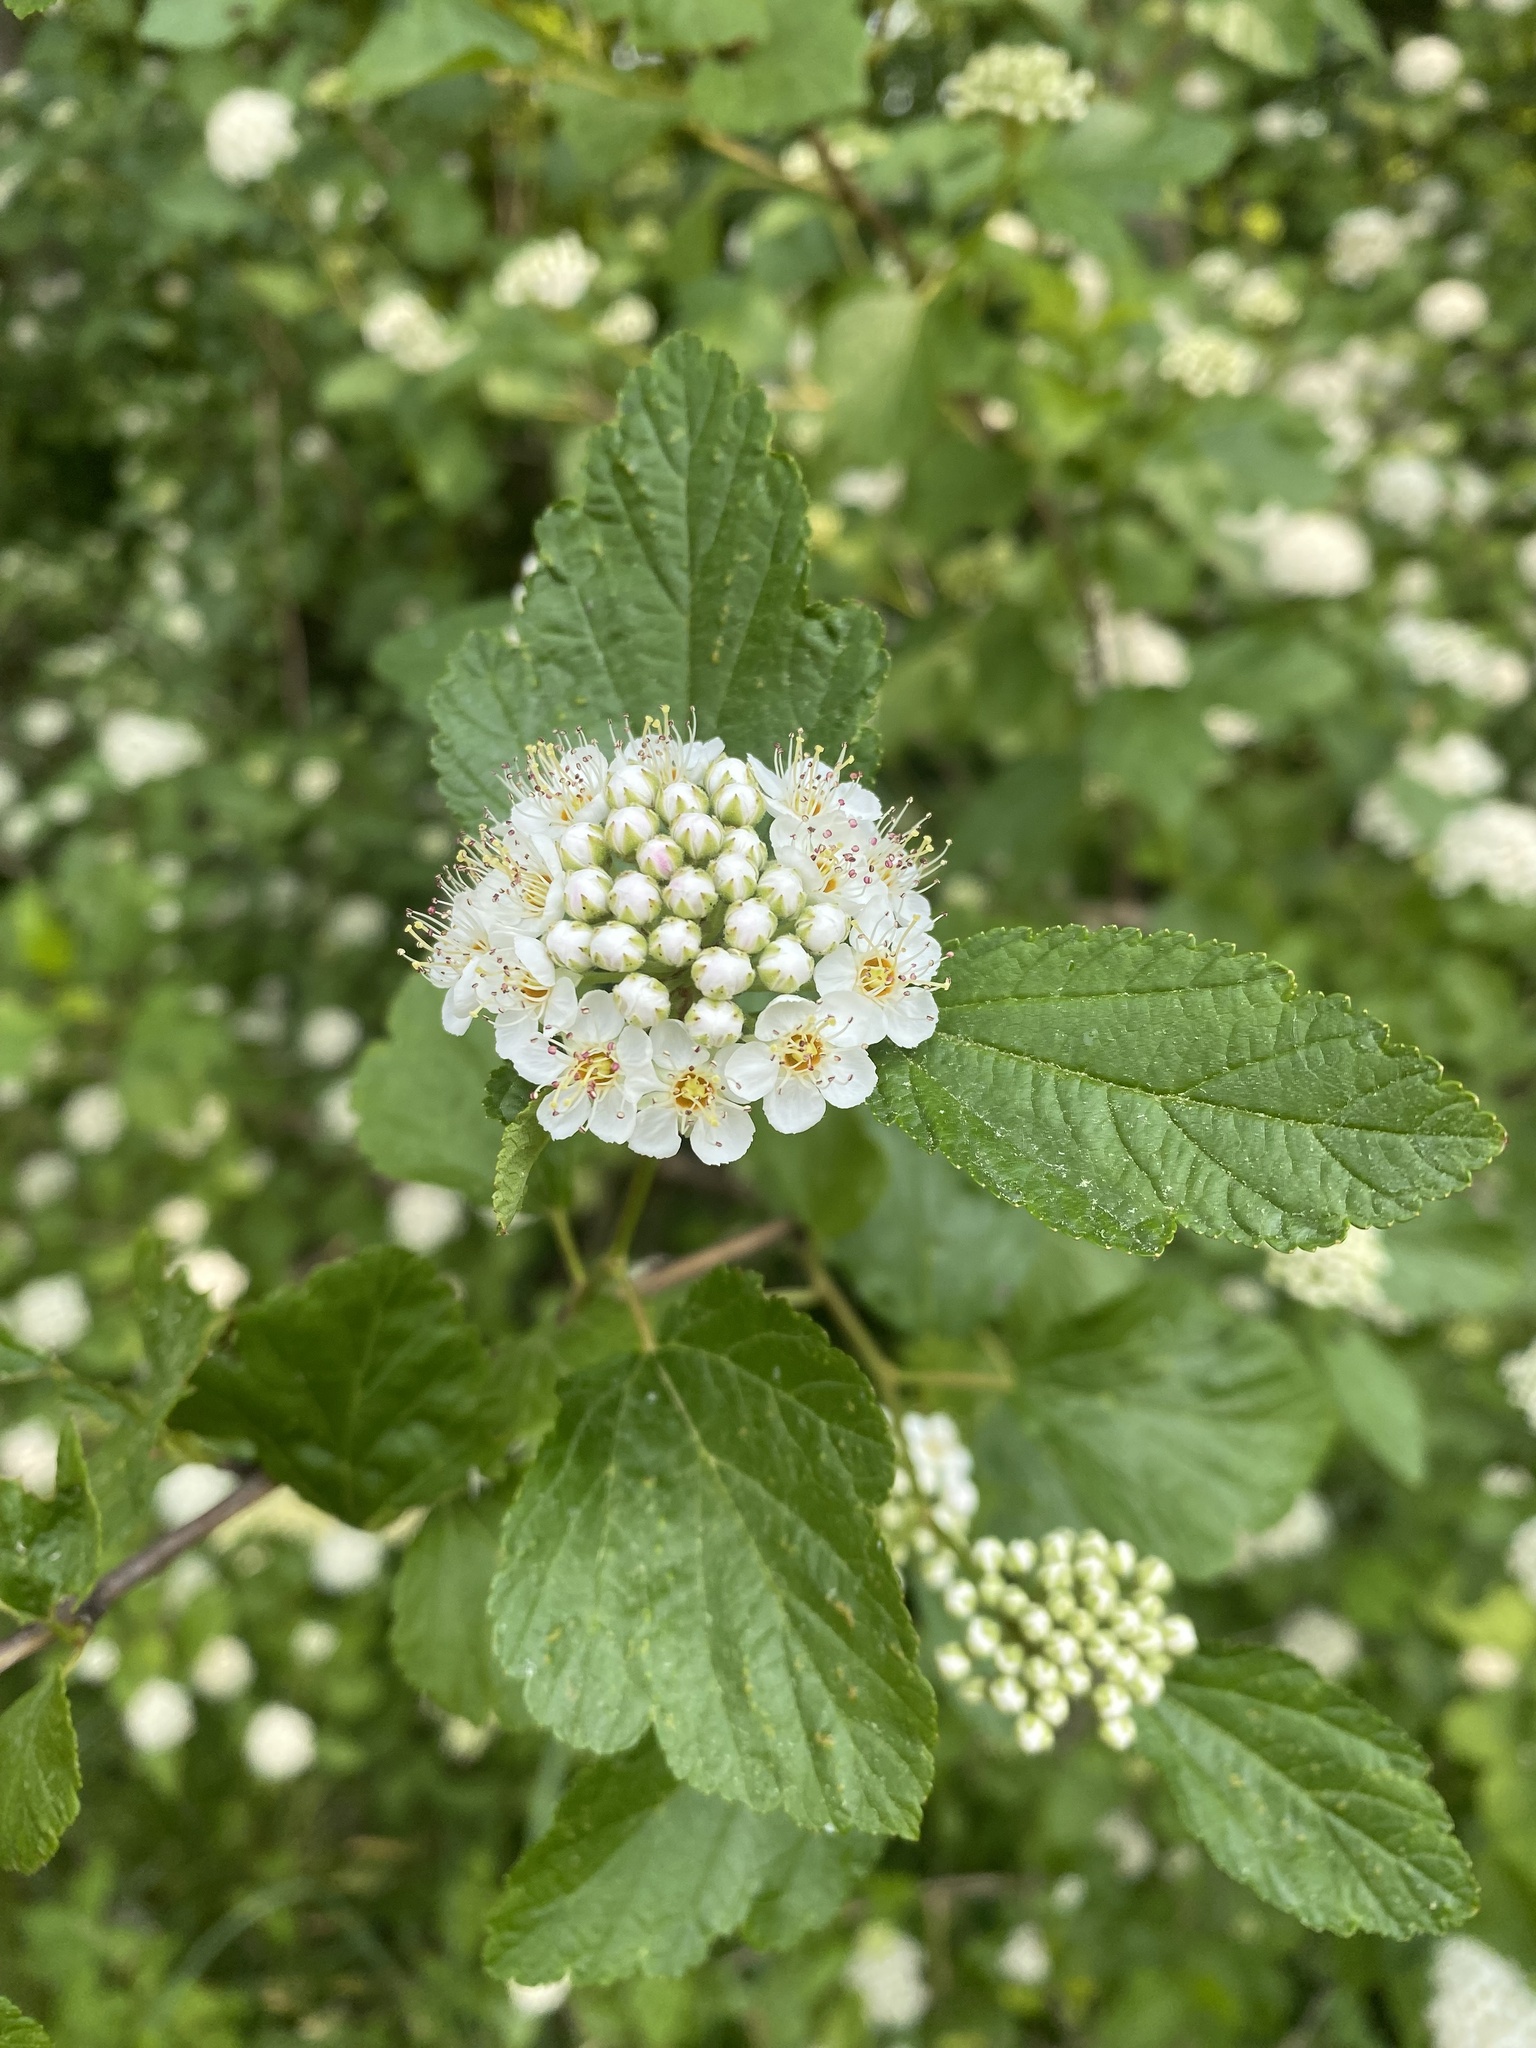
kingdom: Plantae
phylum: Tracheophyta
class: Magnoliopsida
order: Rosales
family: Rosaceae
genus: Physocarpus
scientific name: Physocarpus opulifolius
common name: Ninebark
